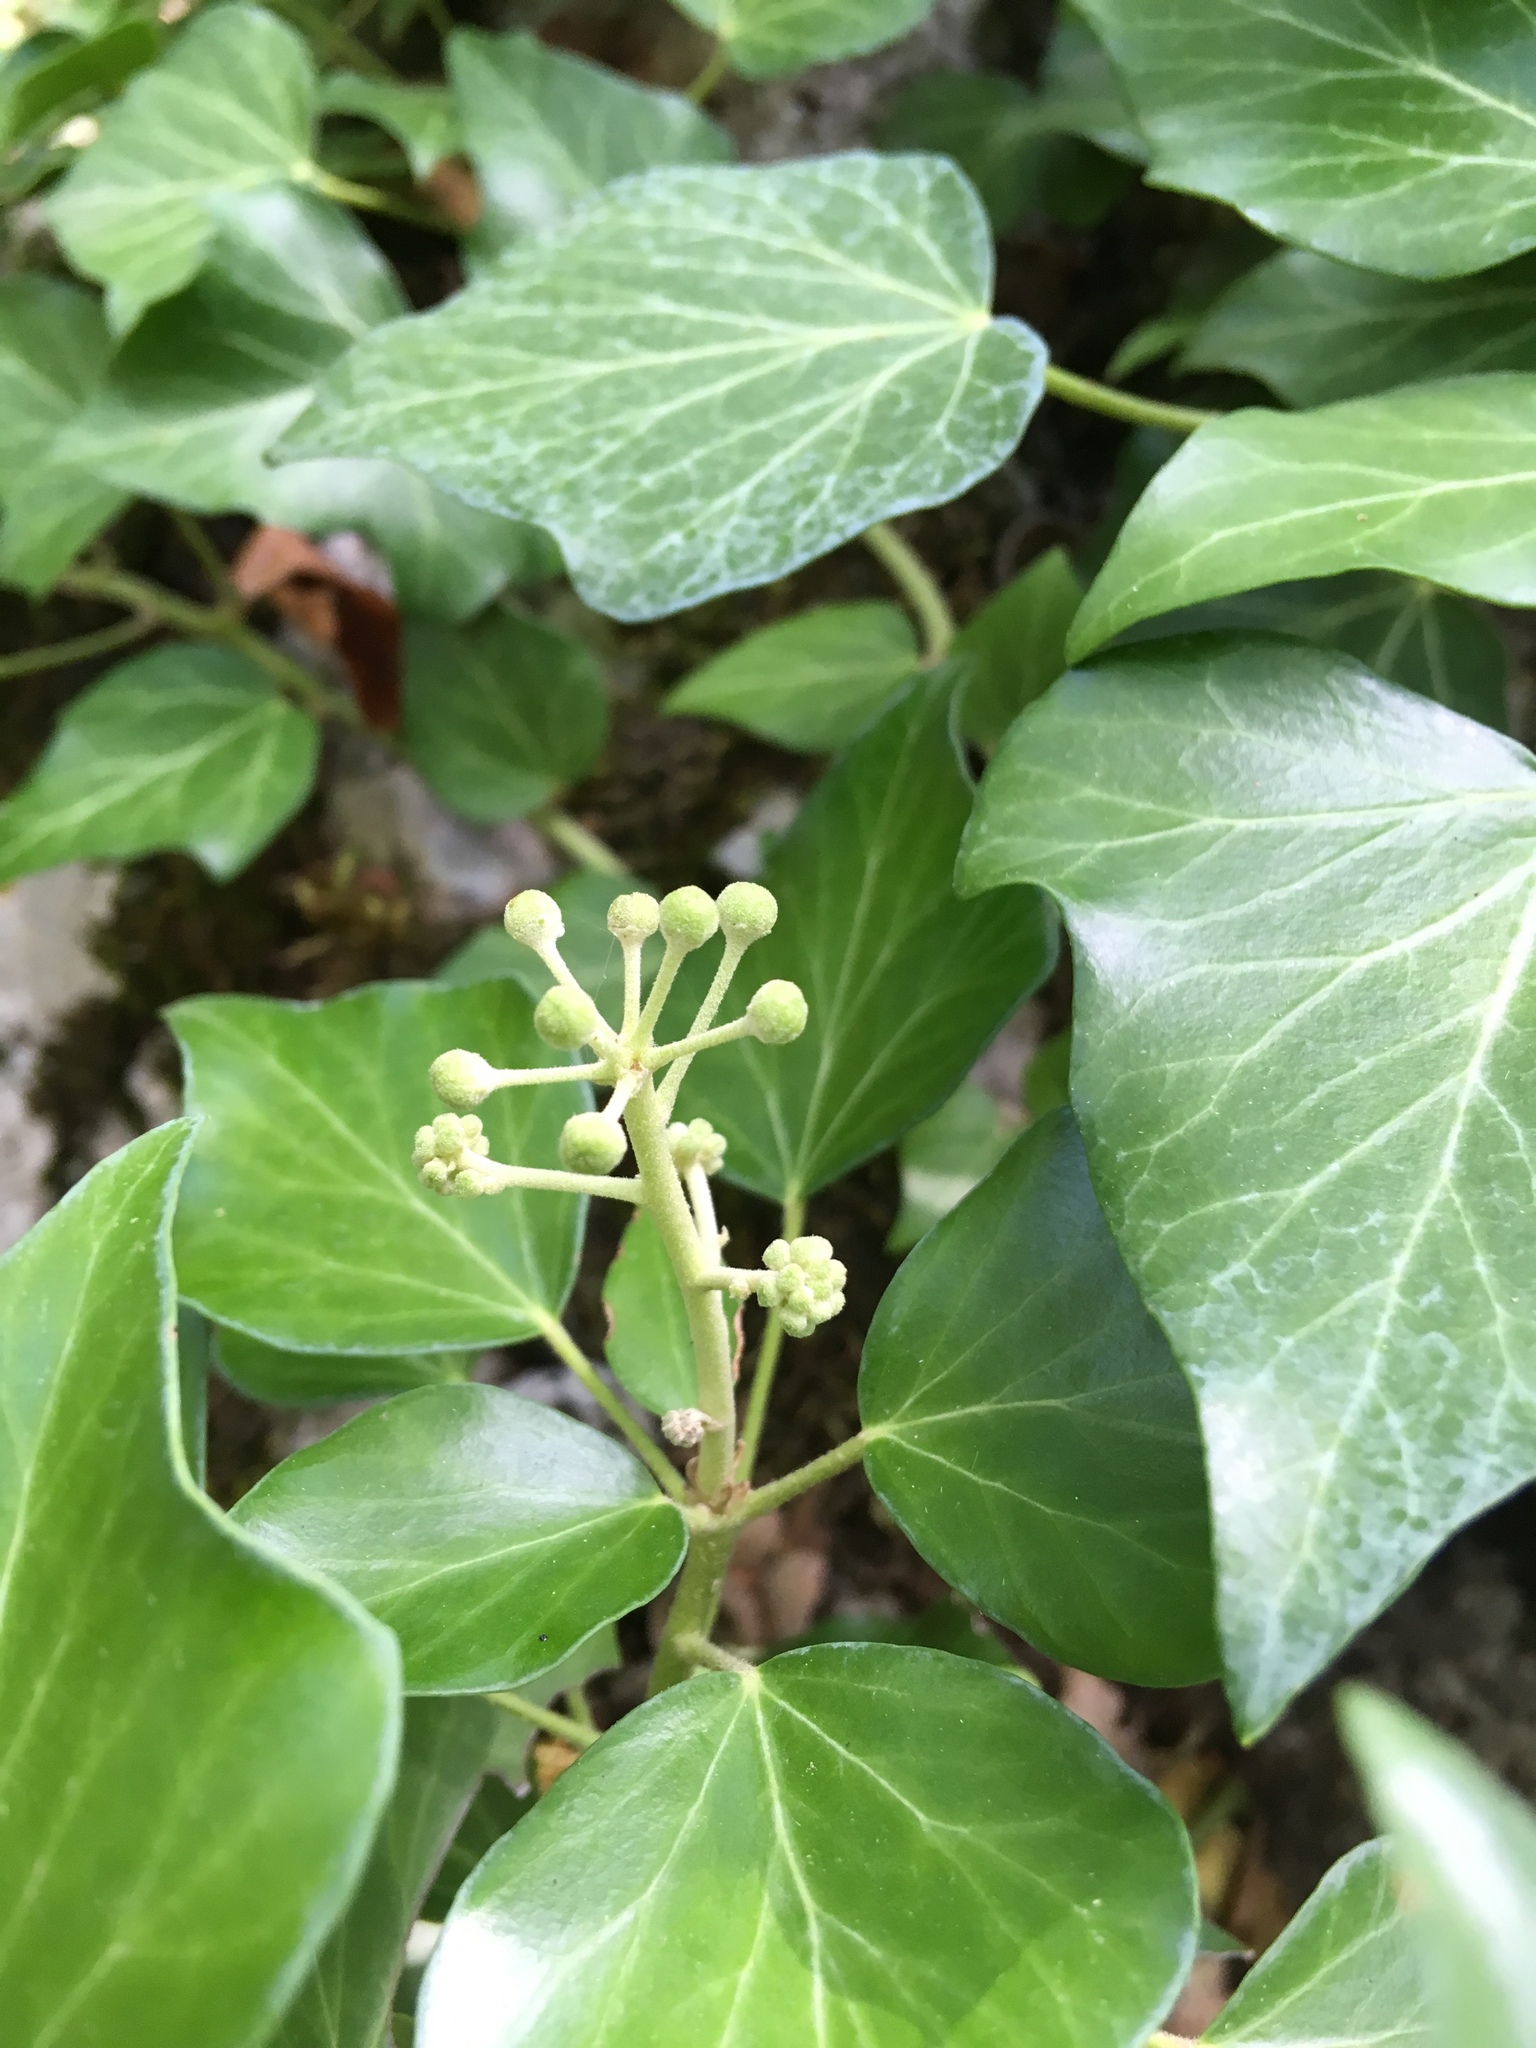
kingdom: Plantae
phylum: Tracheophyta
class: Magnoliopsida
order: Apiales
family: Araliaceae
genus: Hedera
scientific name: Hedera helix
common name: Ivy
